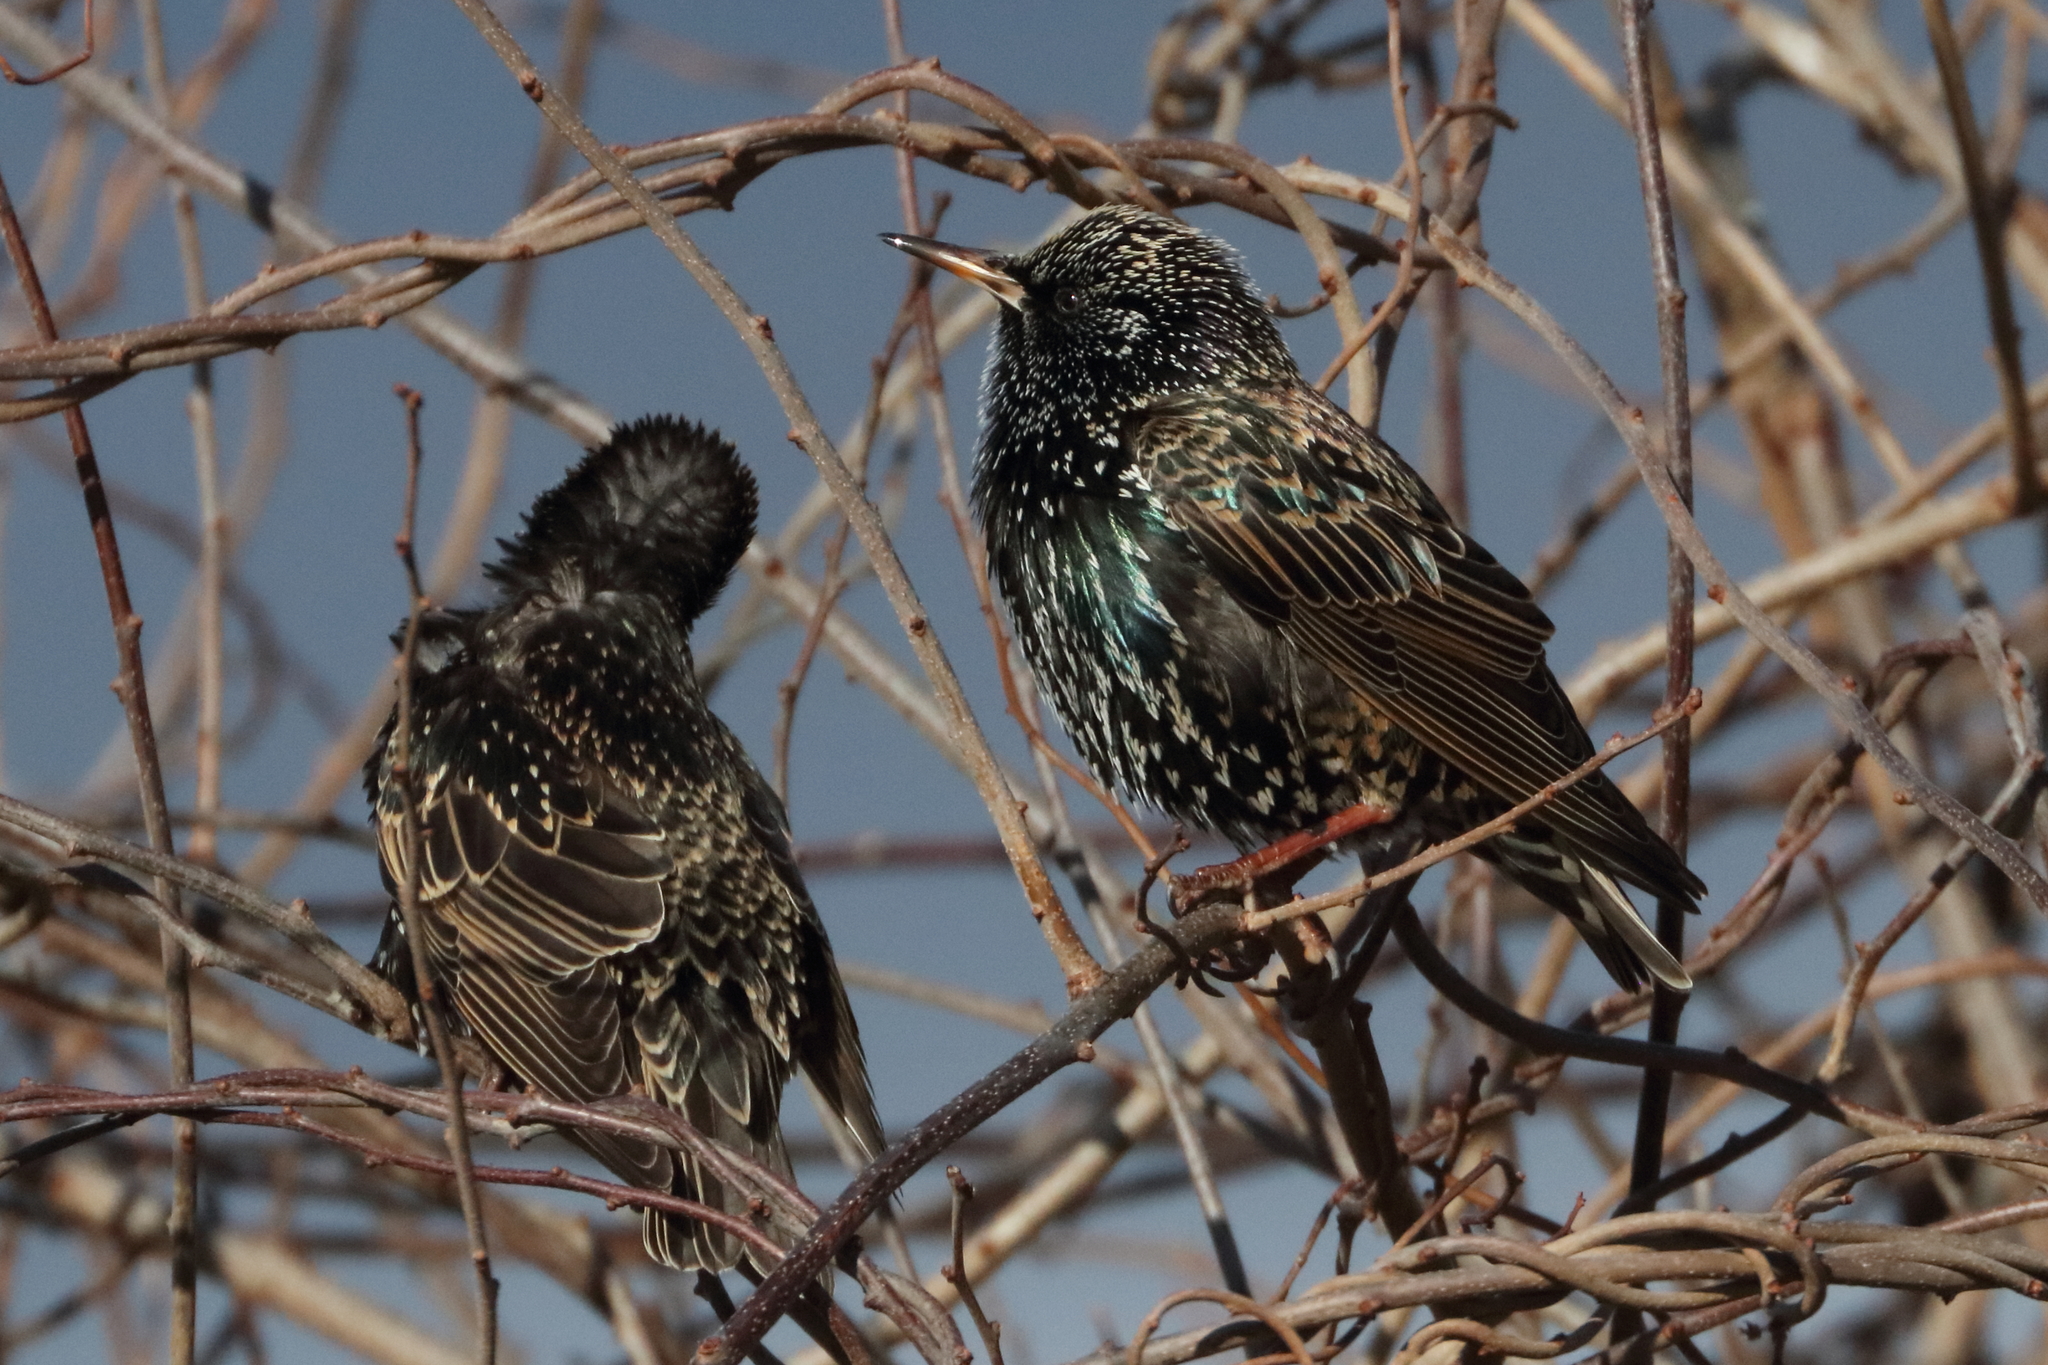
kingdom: Animalia
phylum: Chordata
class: Aves
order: Passeriformes
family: Sturnidae
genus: Sturnus
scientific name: Sturnus vulgaris
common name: Common starling
